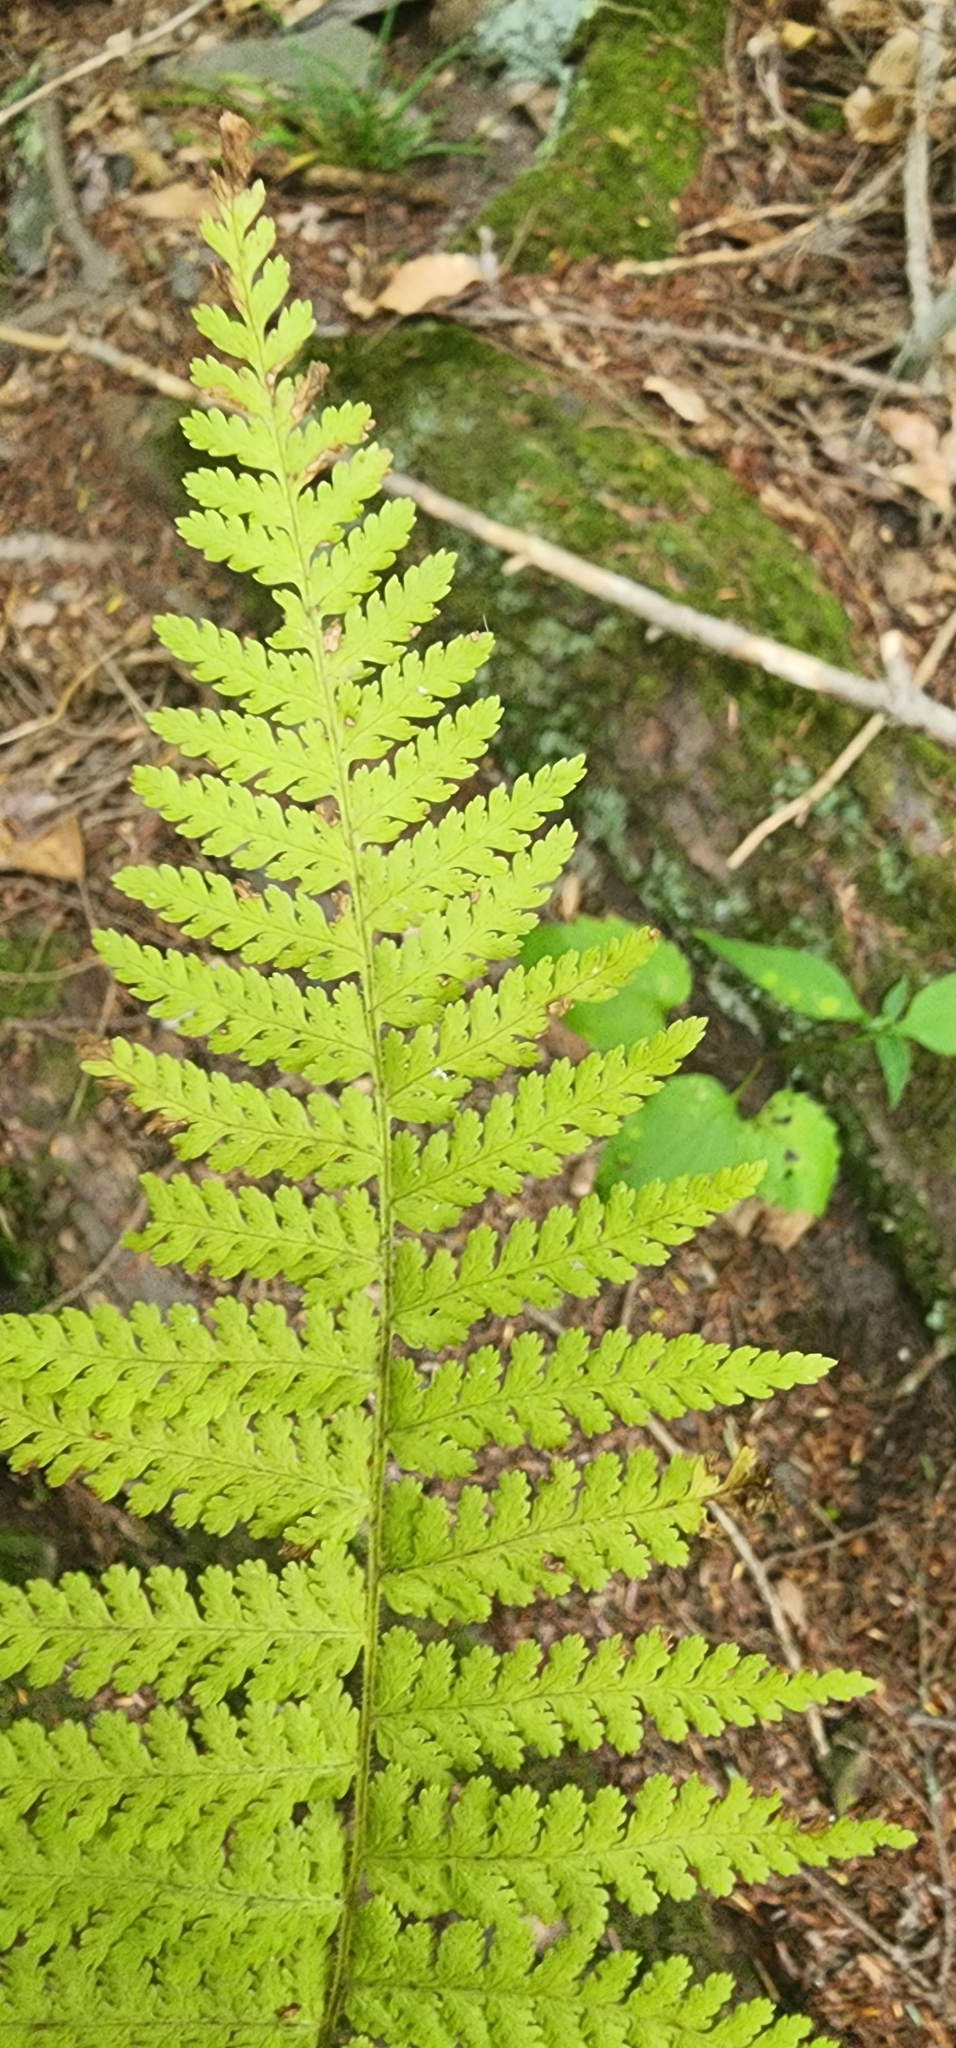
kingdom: Plantae
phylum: Tracheophyta
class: Polypodiopsida
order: Polypodiales
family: Dennstaedtiaceae
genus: Sitobolium
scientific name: Sitobolium punctilobum
